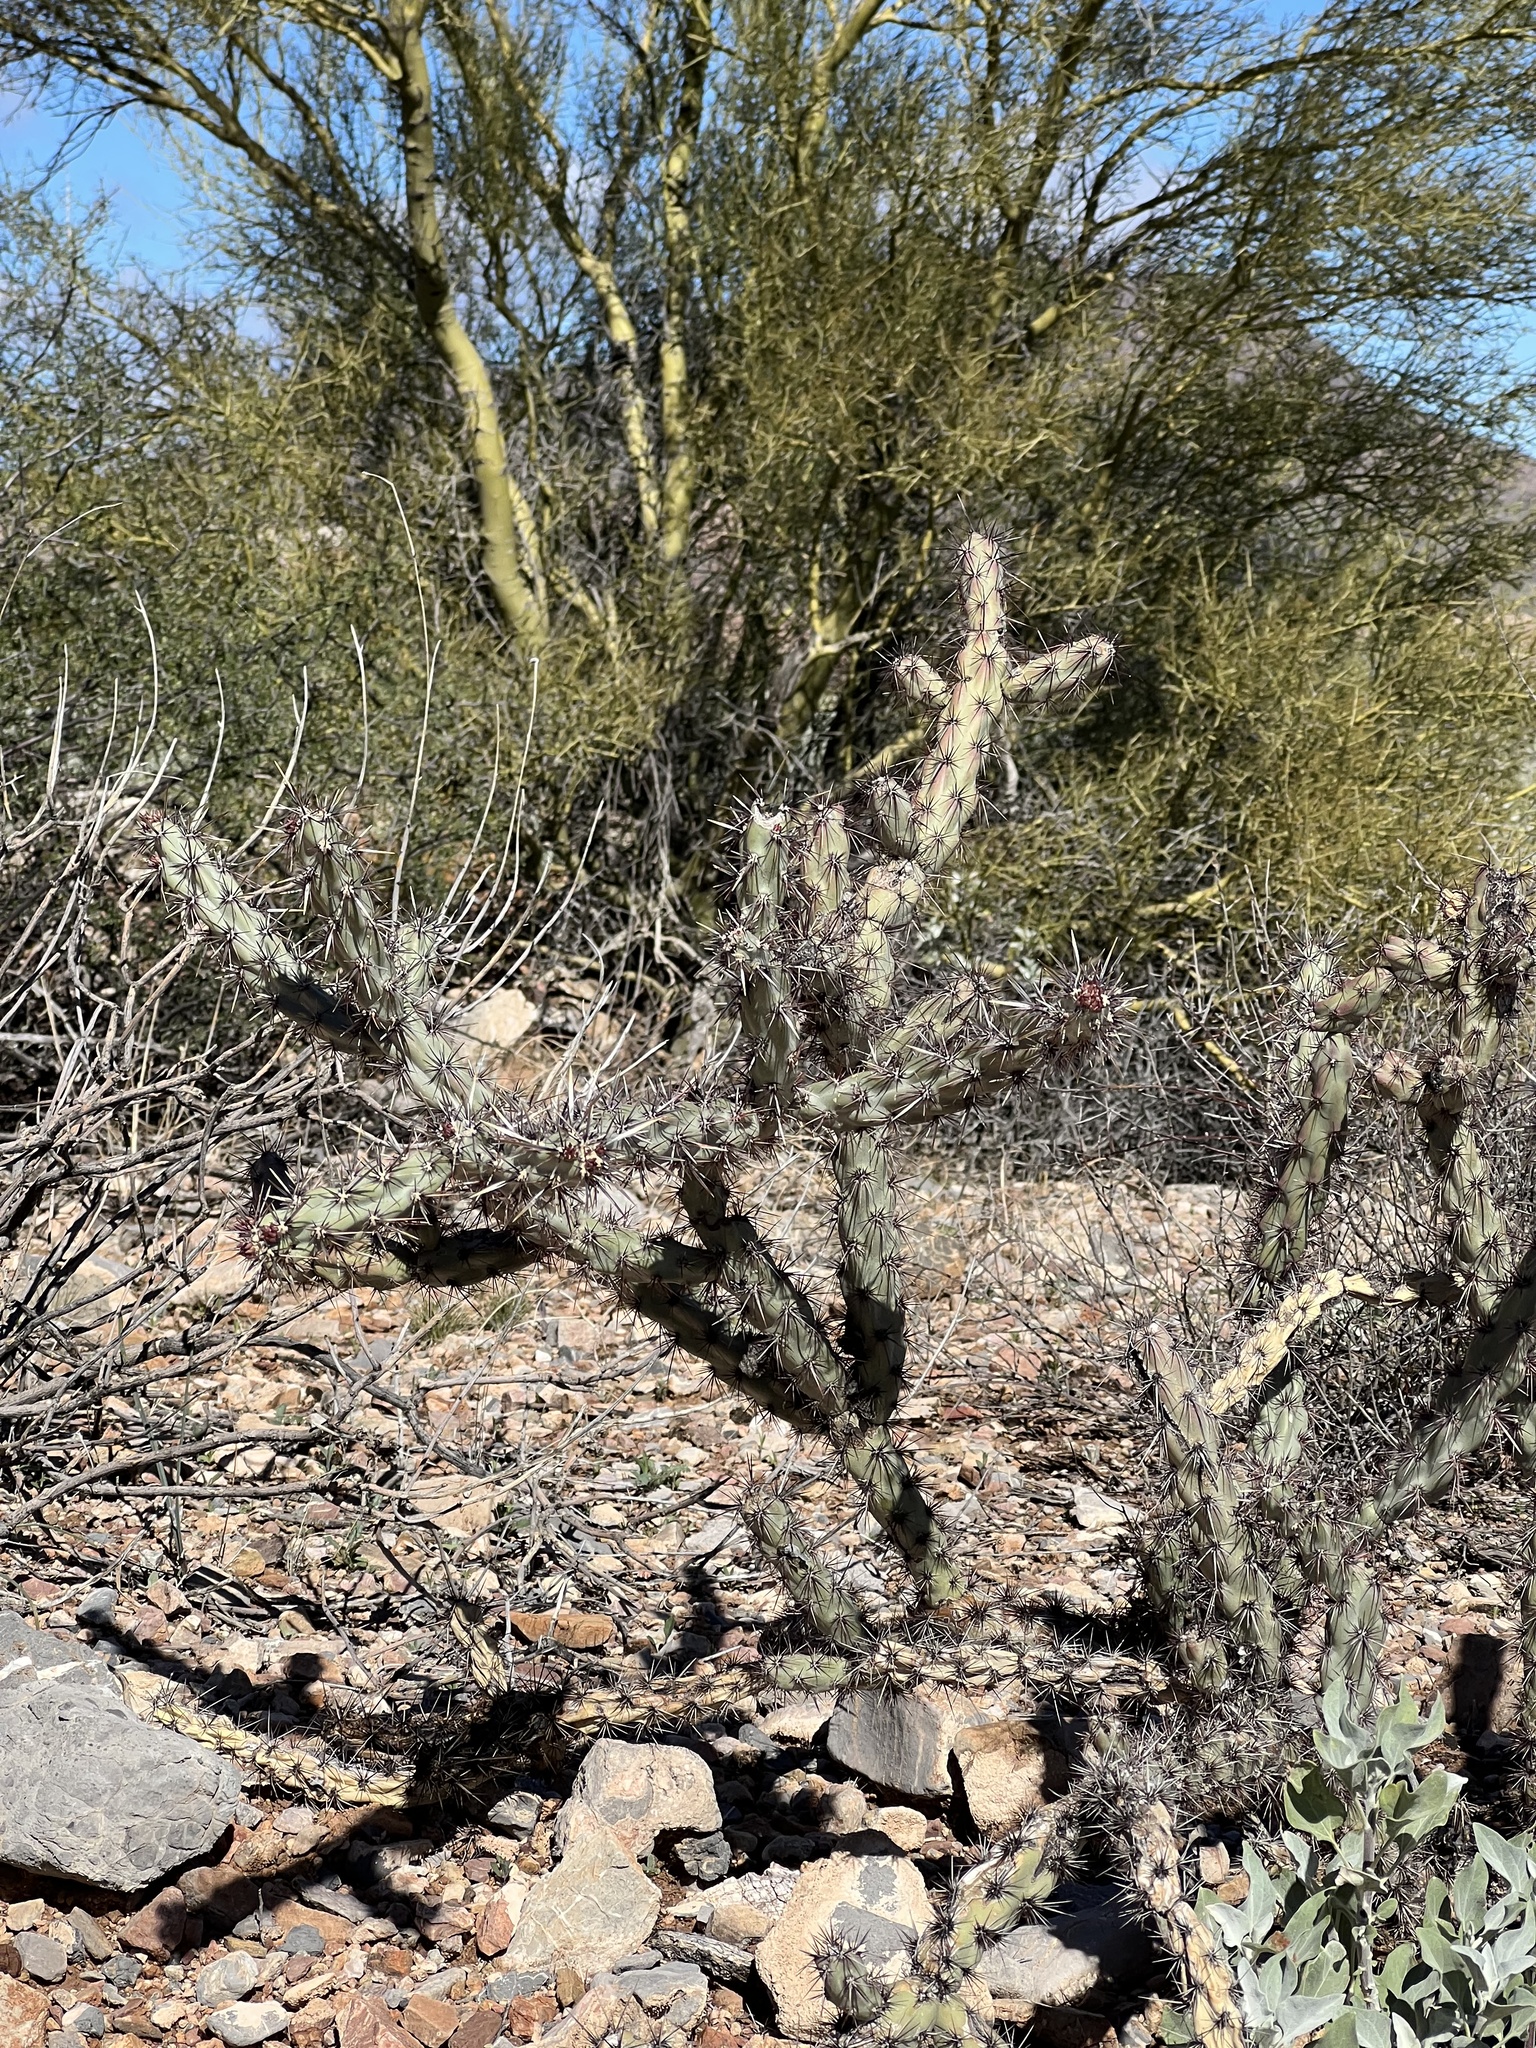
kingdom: Plantae
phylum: Tracheophyta
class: Magnoliopsida
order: Caryophyllales
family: Cactaceae
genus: Cylindropuntia
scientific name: Cylindropuntia acanthocarpa
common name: Buckhorn cholla
